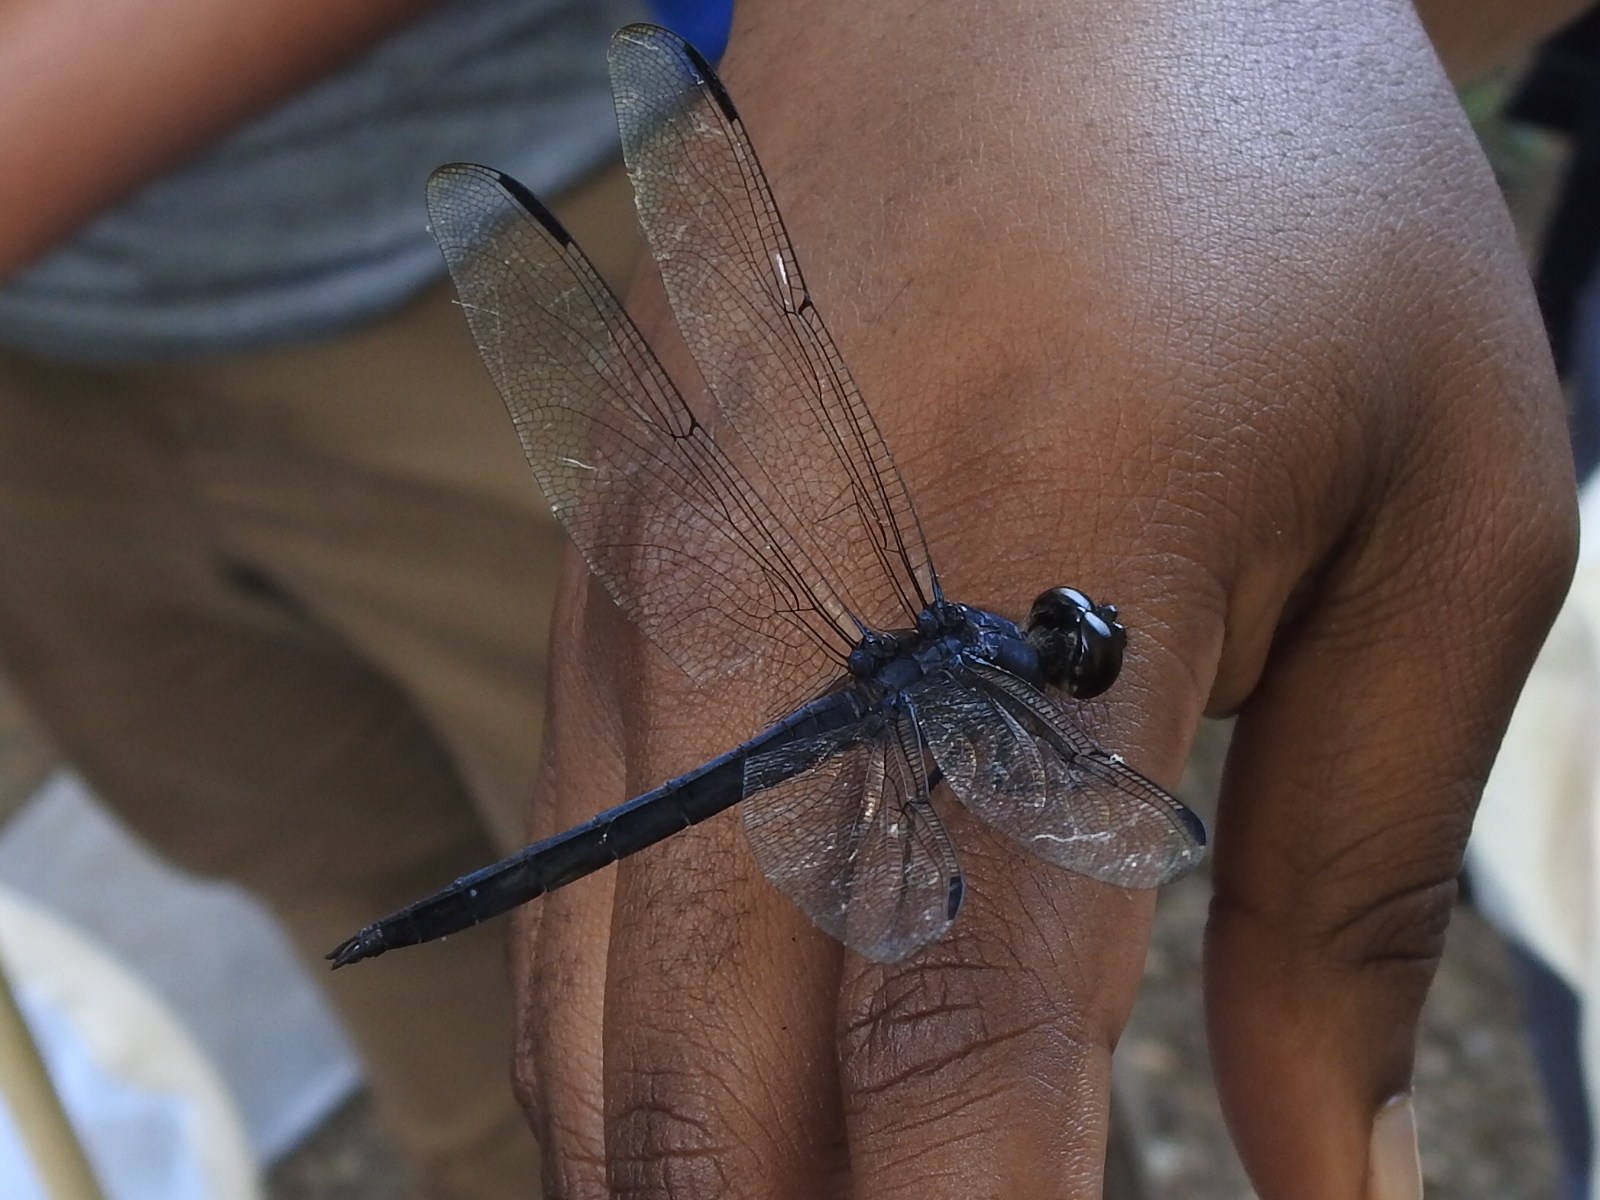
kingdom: Animalia
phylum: Arthropoda
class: Insecta
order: Odonata
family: Libellulidae
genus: Libellula
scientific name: Libellula incesta
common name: Slaty skimmer
